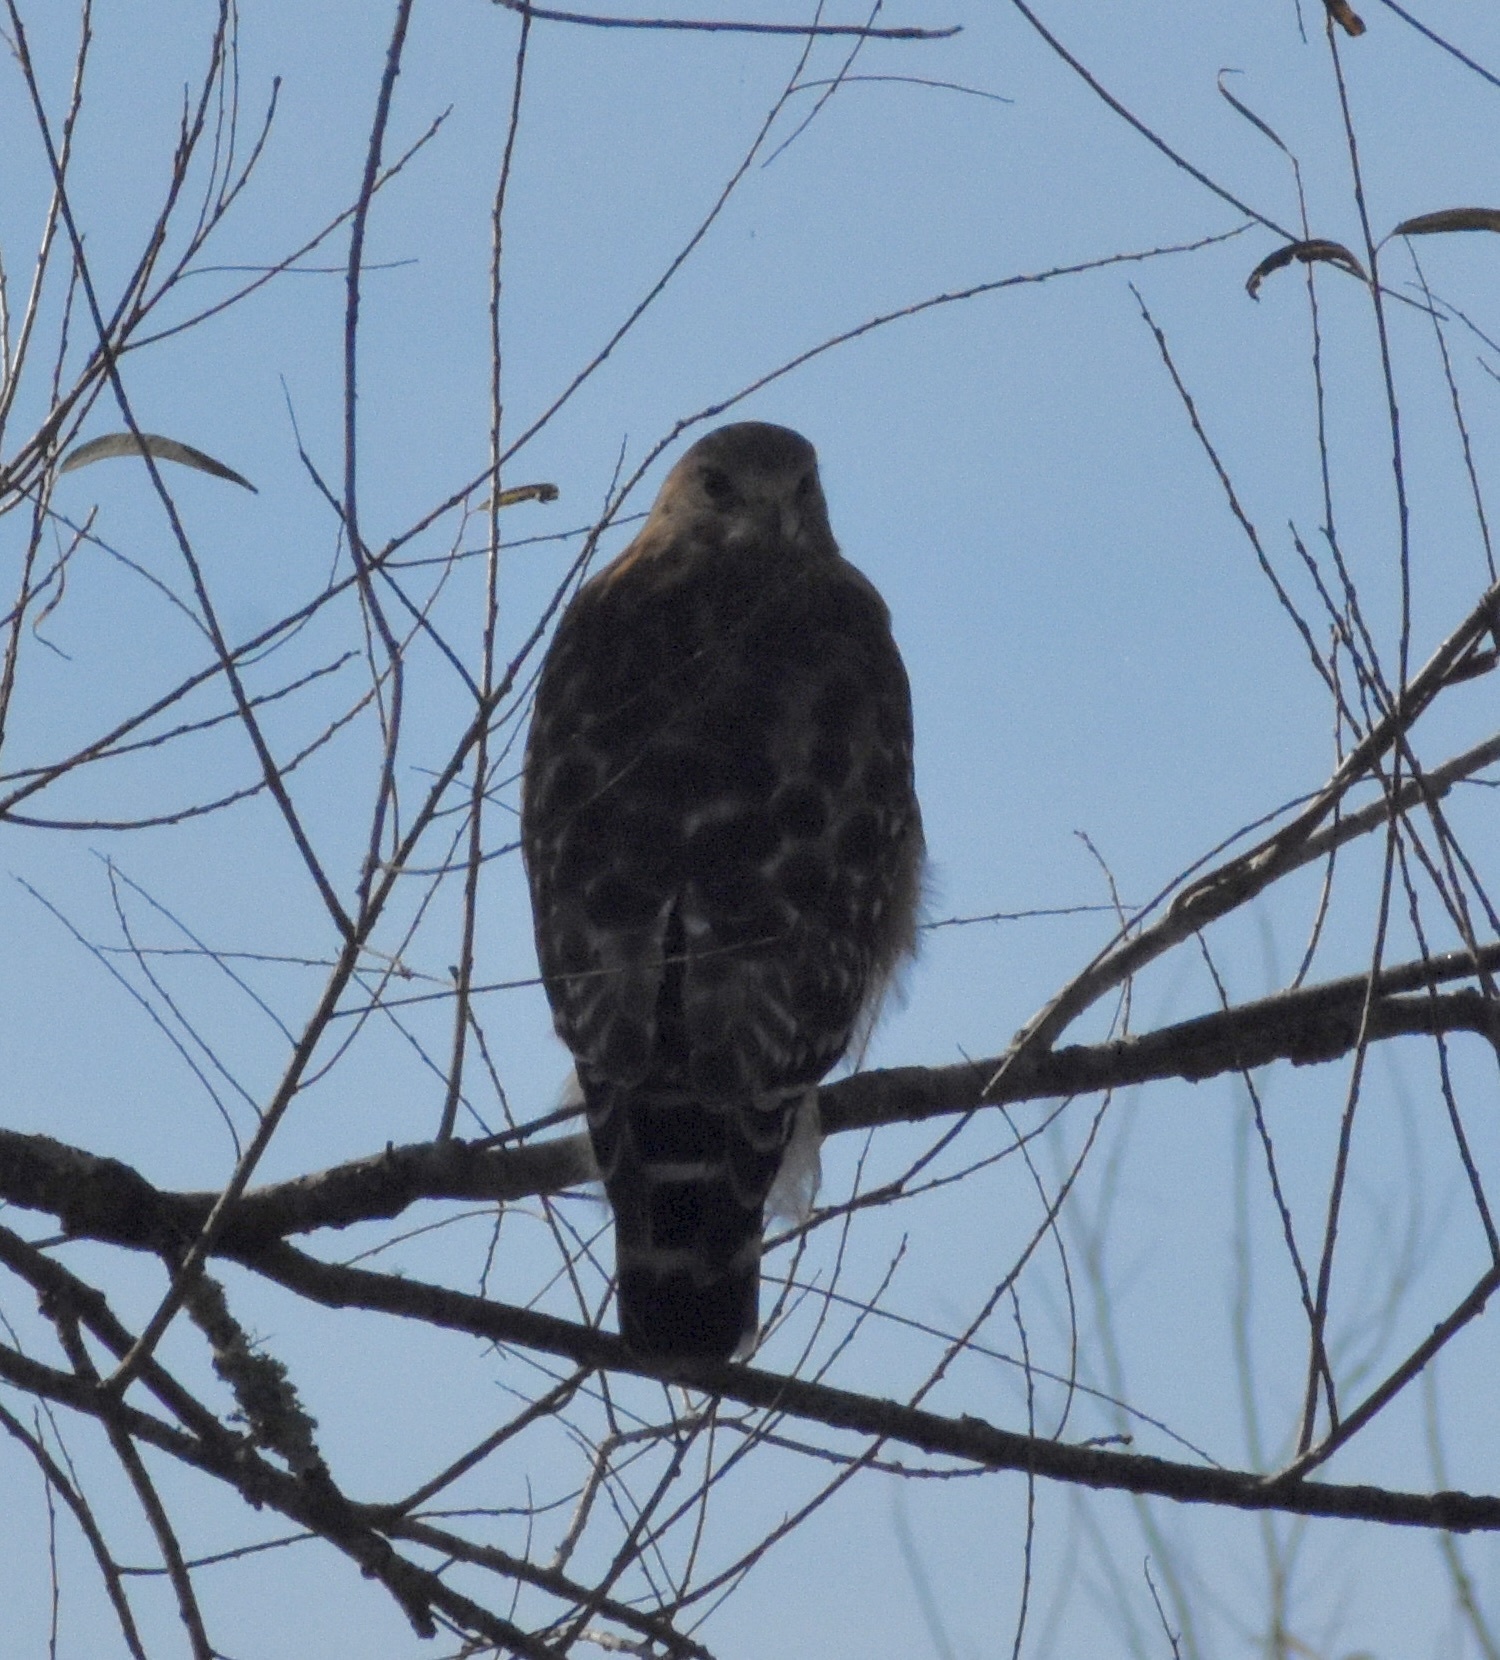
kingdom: Animalia
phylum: Chordata
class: Aves
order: Accipitriformes
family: Accipitridae
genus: Buteo
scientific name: Buteo lineatus
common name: Red-shouldered hawk
